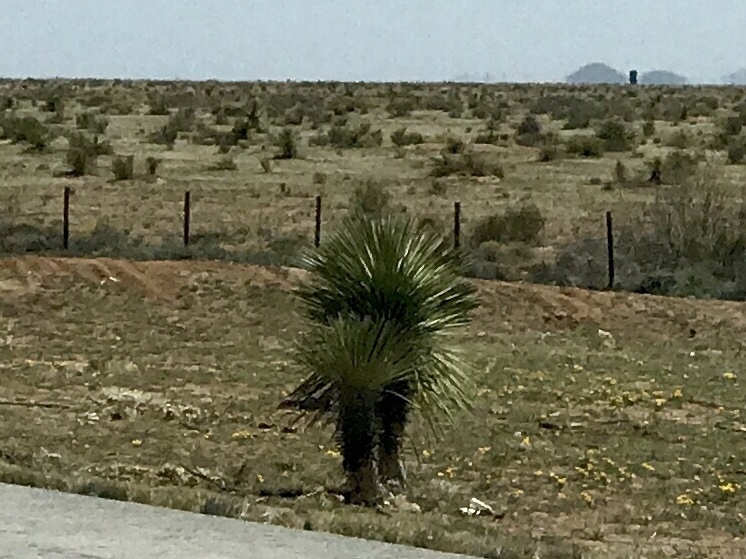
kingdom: Plantae
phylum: Tracheophyta
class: Liliopsida
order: Asparagales
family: Asparagaceae
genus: Yucca
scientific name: Yucca elata
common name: Palmella
